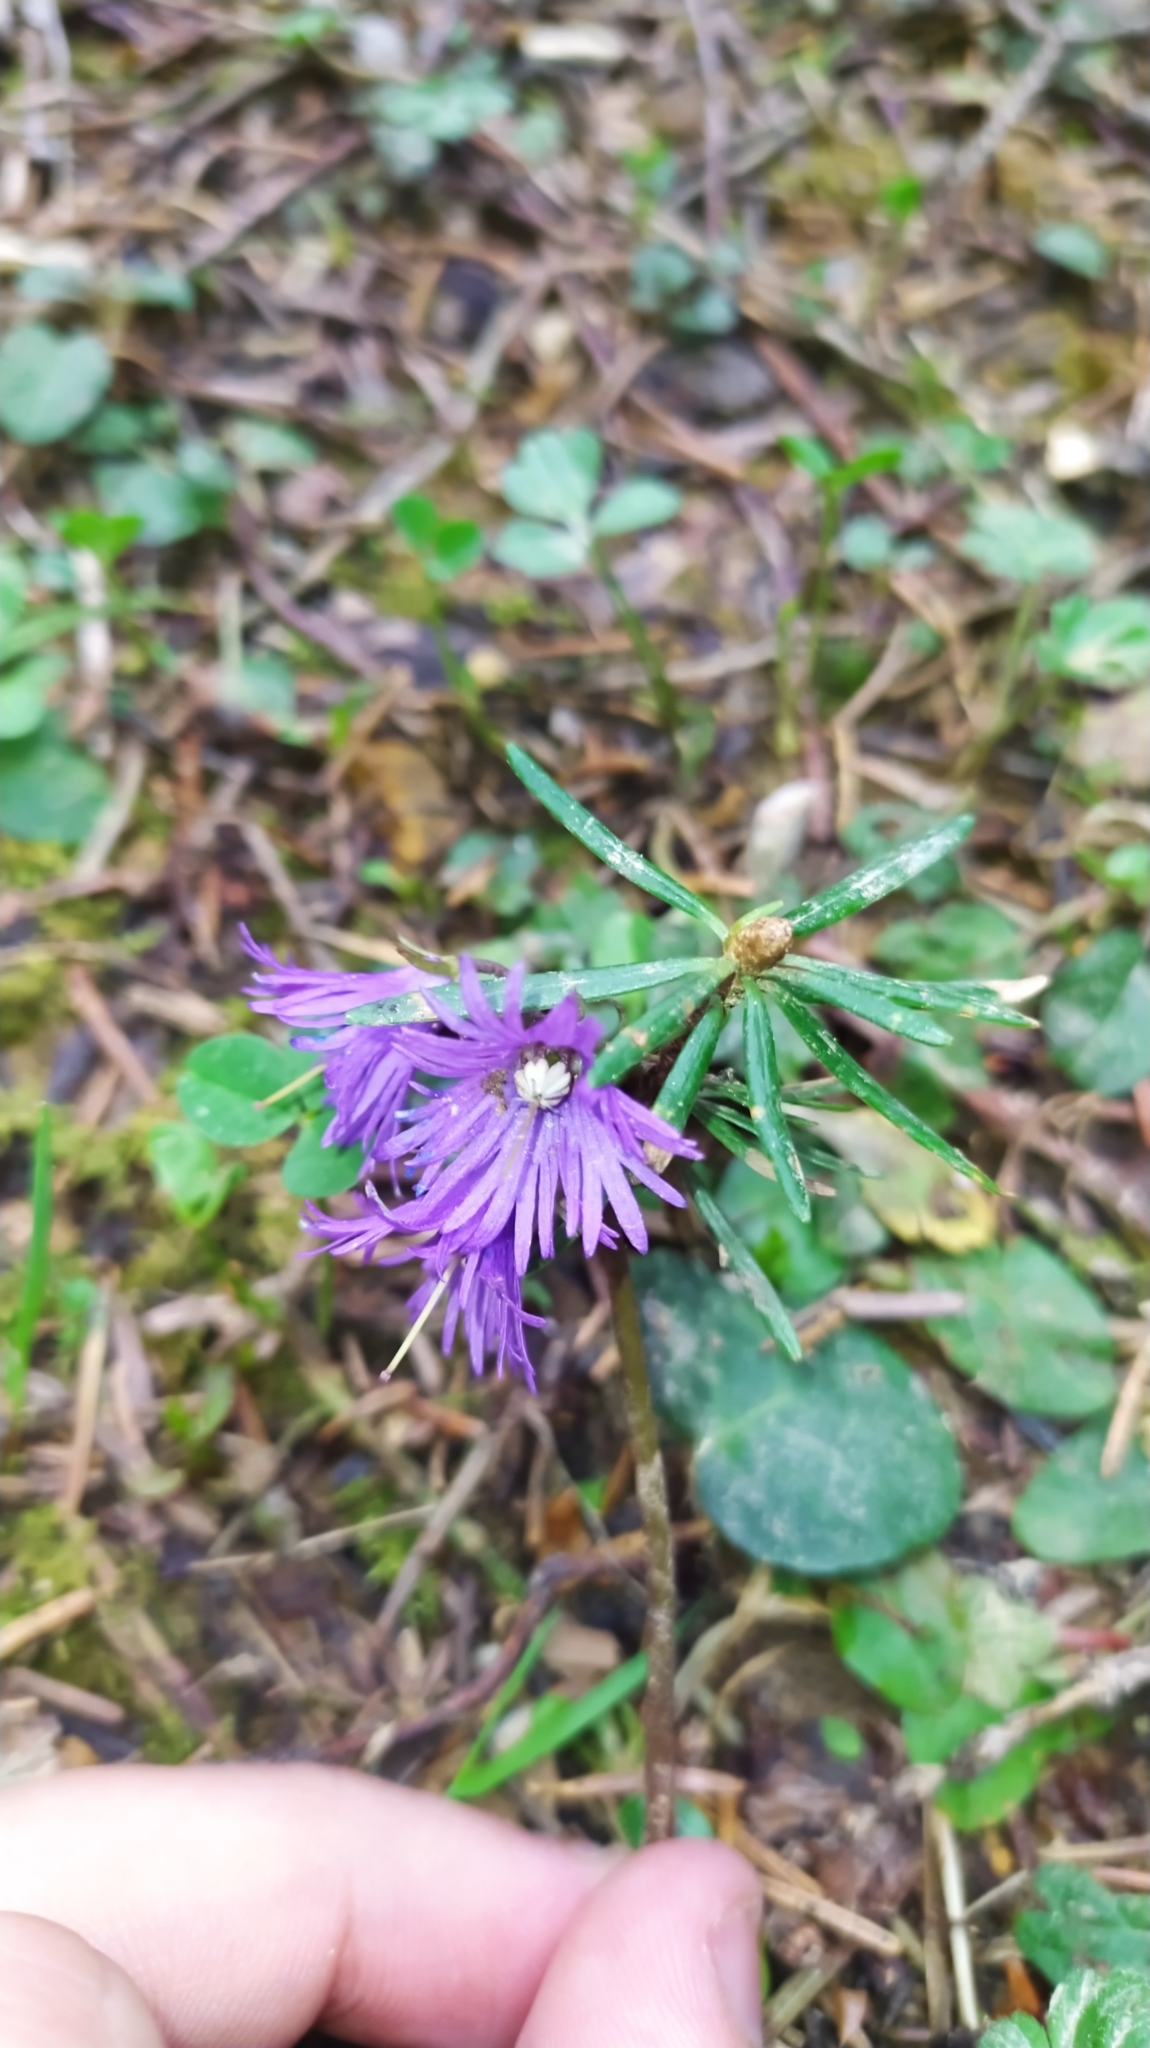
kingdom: Plantae
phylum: Tracheophyta
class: Magnoliopsida
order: Ericales
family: Primulaceae
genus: Soldanella
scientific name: Soldanella alpina
